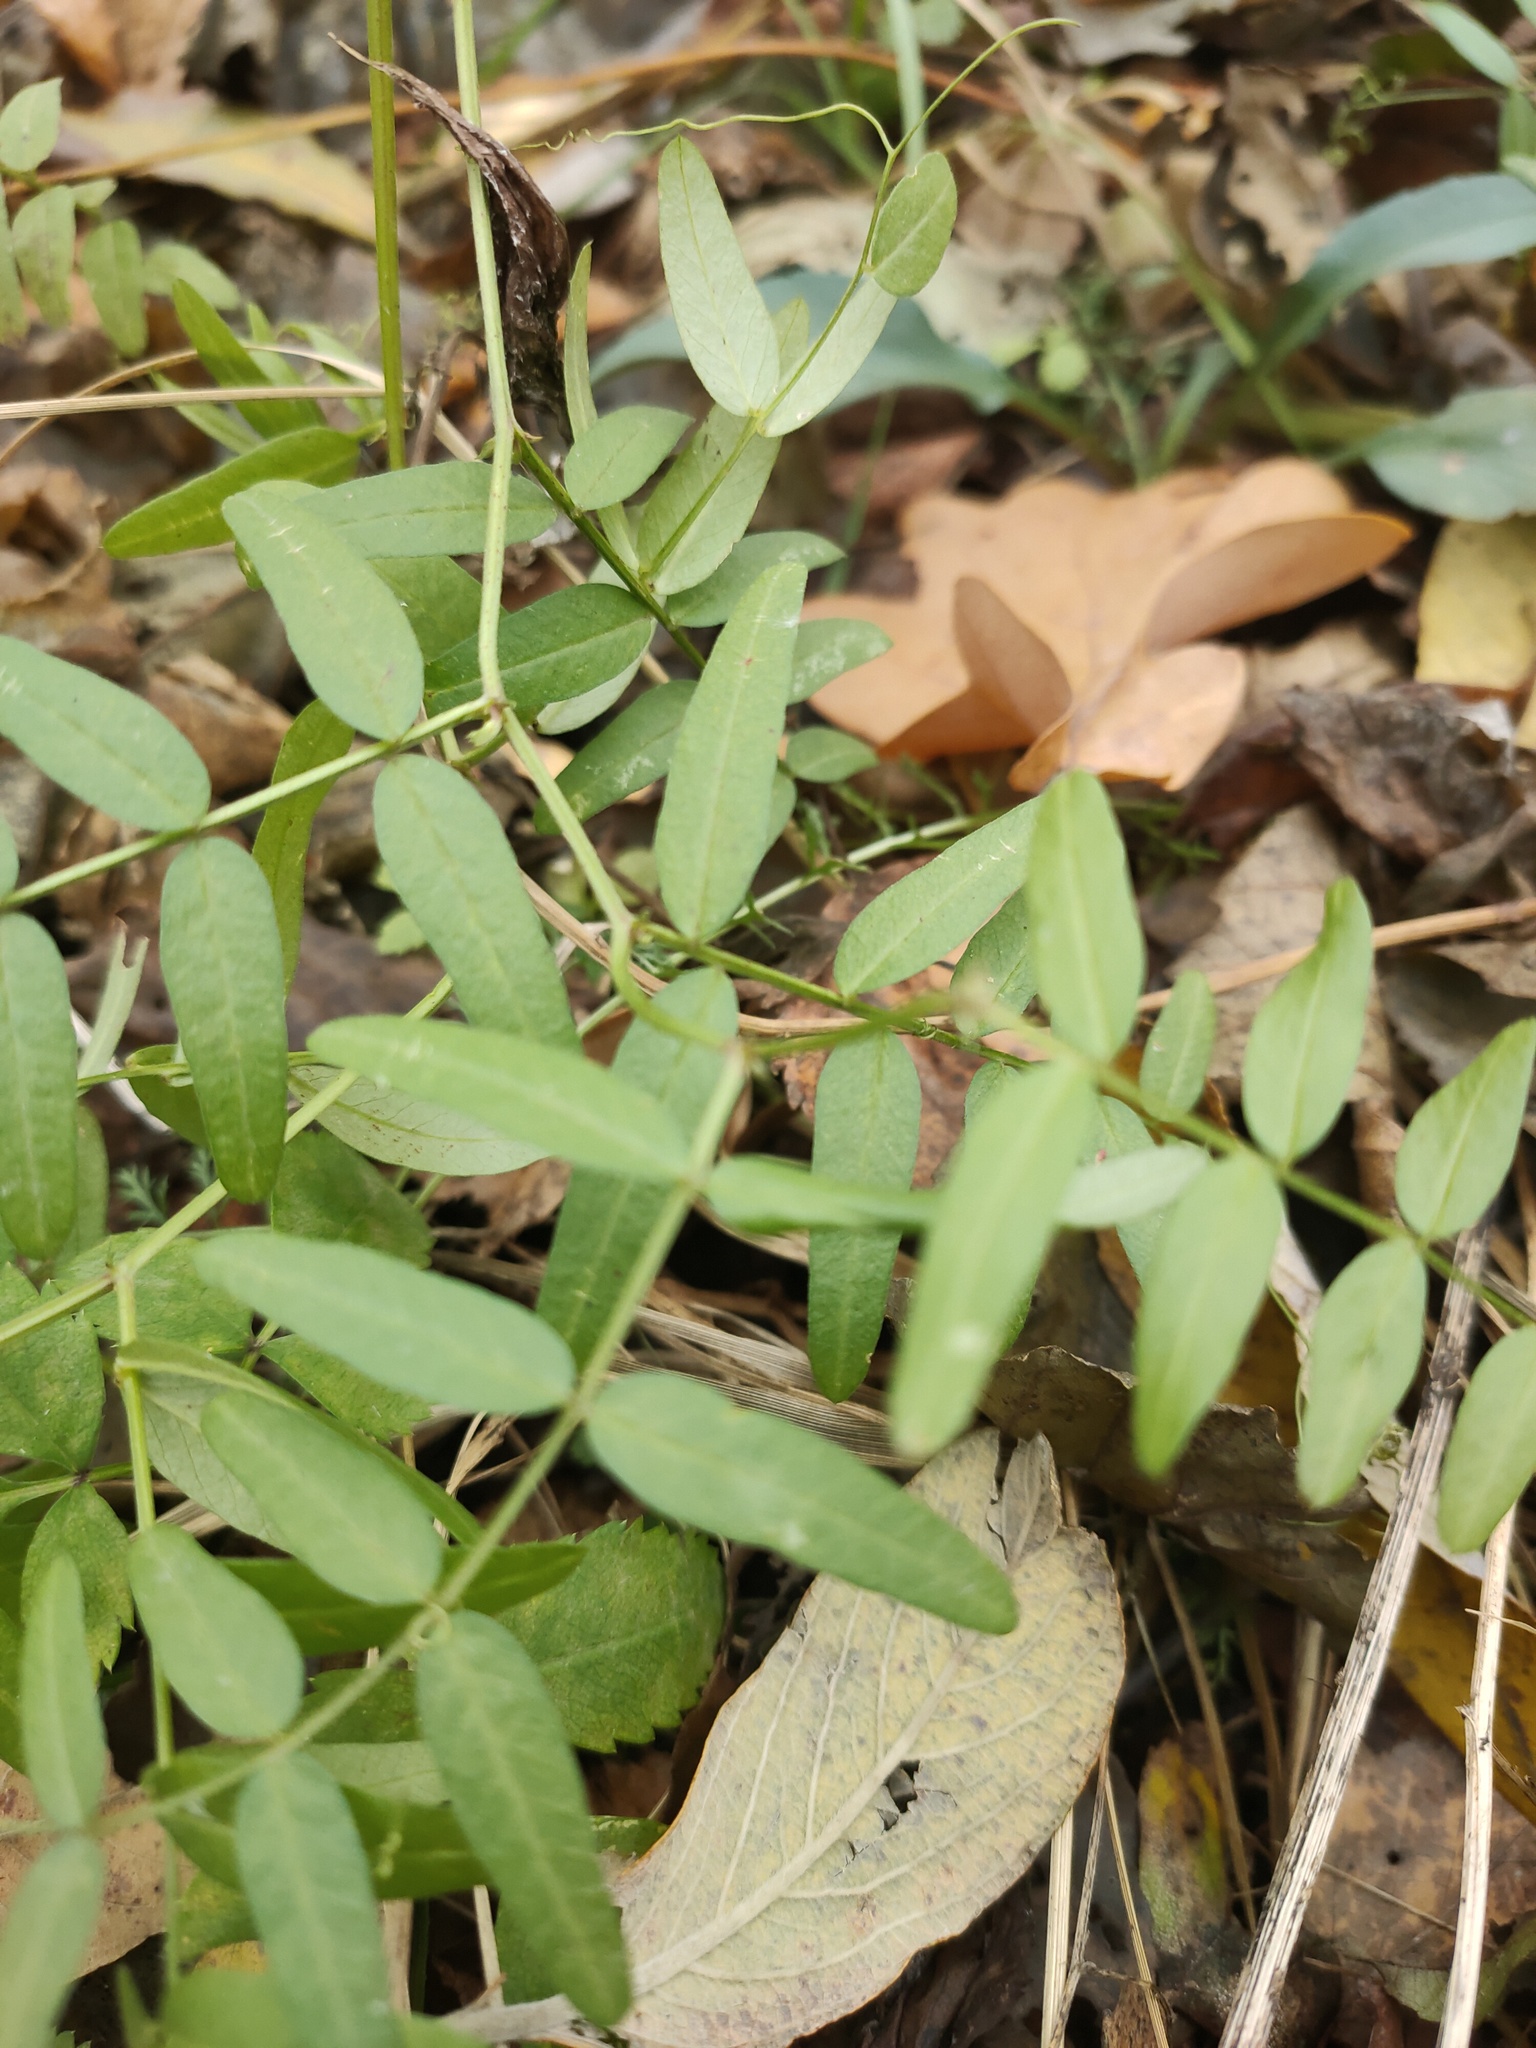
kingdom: Plantae
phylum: Tracheophyta
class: Magnoliopsida
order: Fabales
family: Fabaceae
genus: Vicia
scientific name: Vicia sepium
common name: Bush vetch
